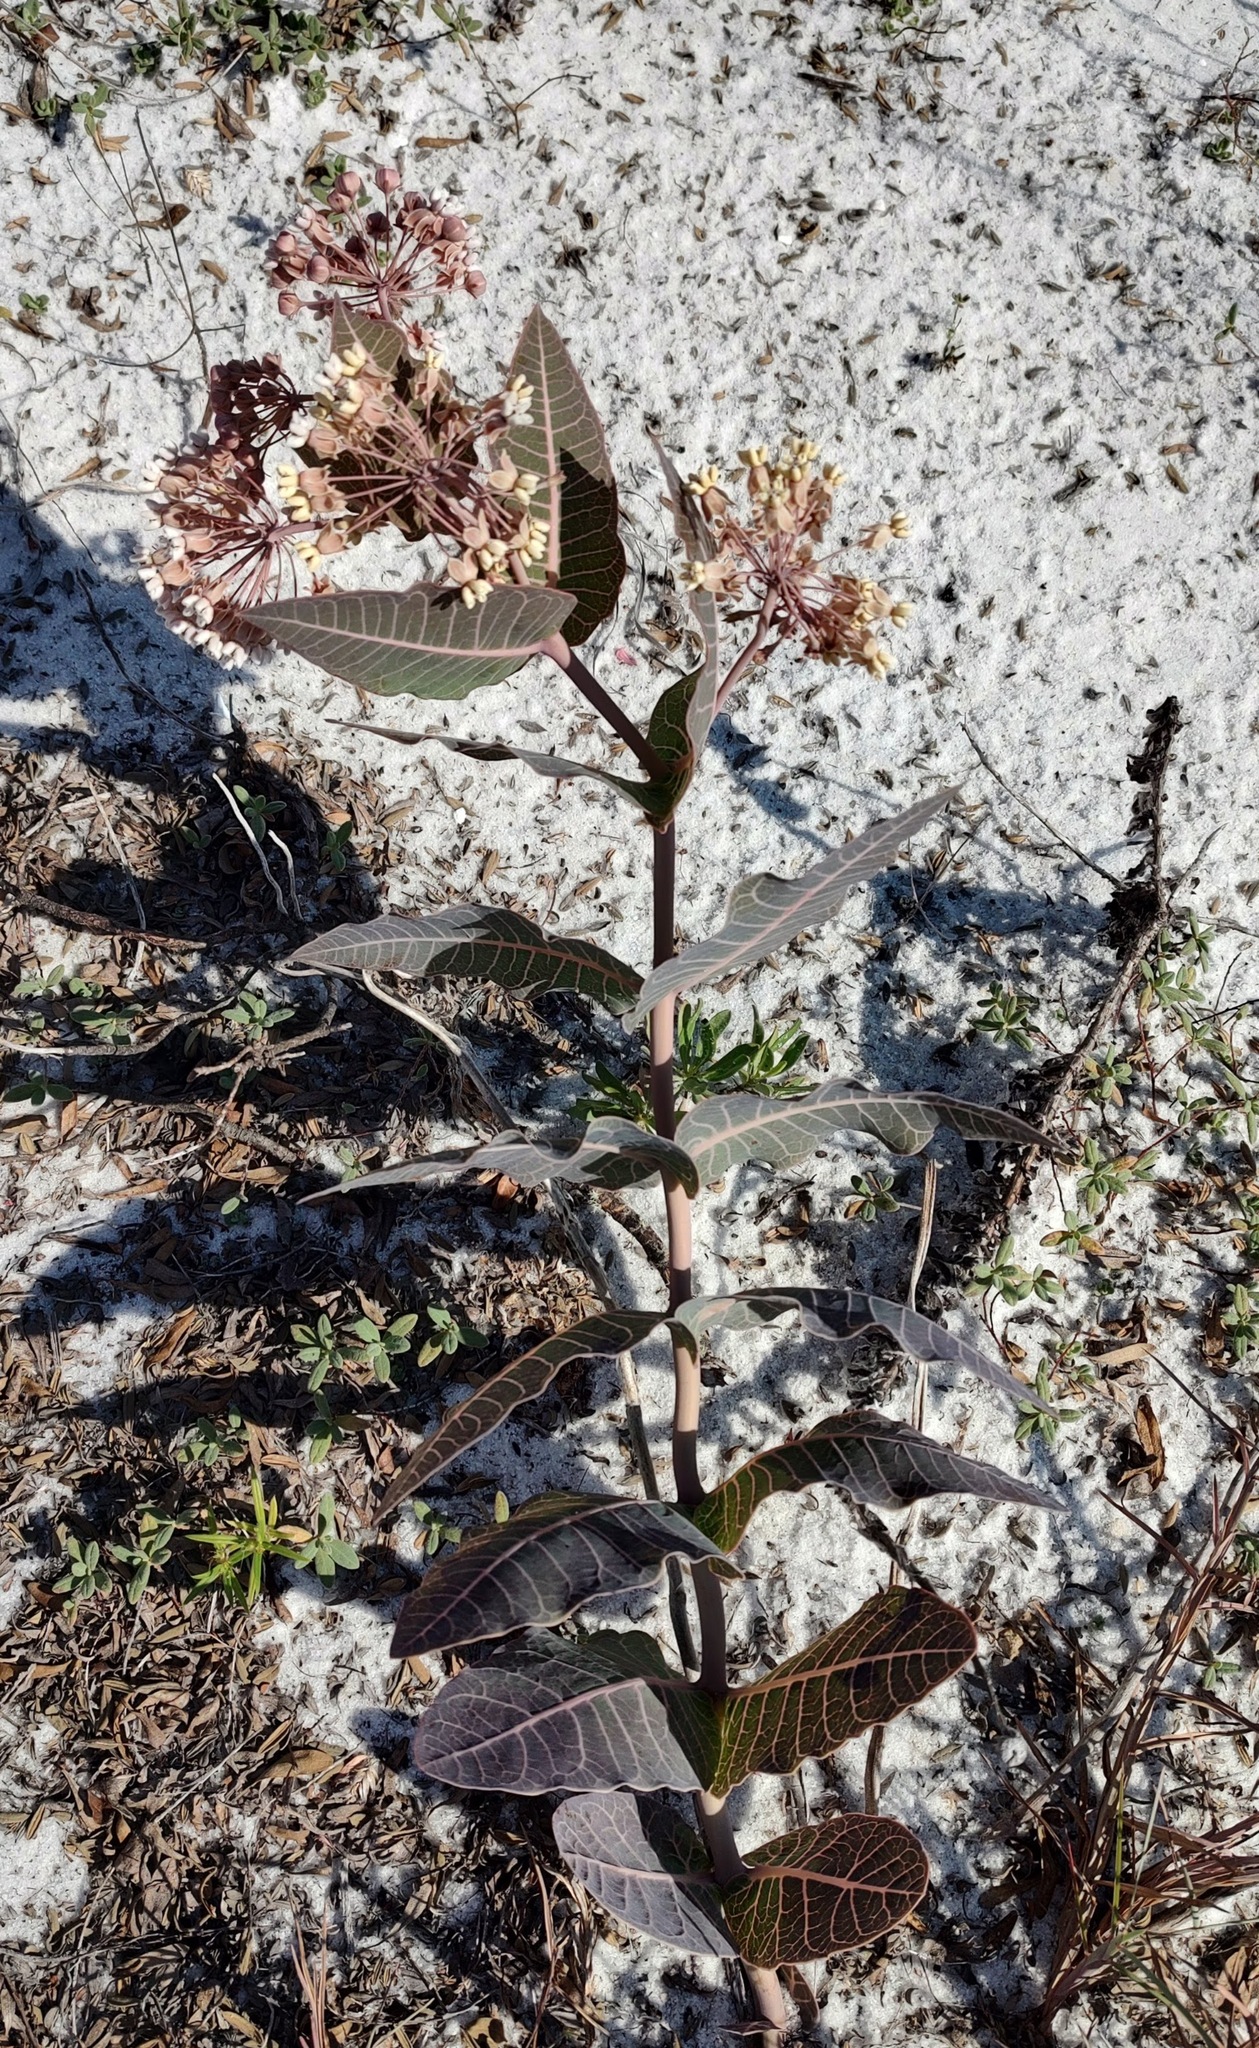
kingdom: Plantae
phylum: Tracheophyta
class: Magnoliopsida
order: Gentianales
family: Apocynaceae
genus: Asclepias
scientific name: Asclepias humistrata
